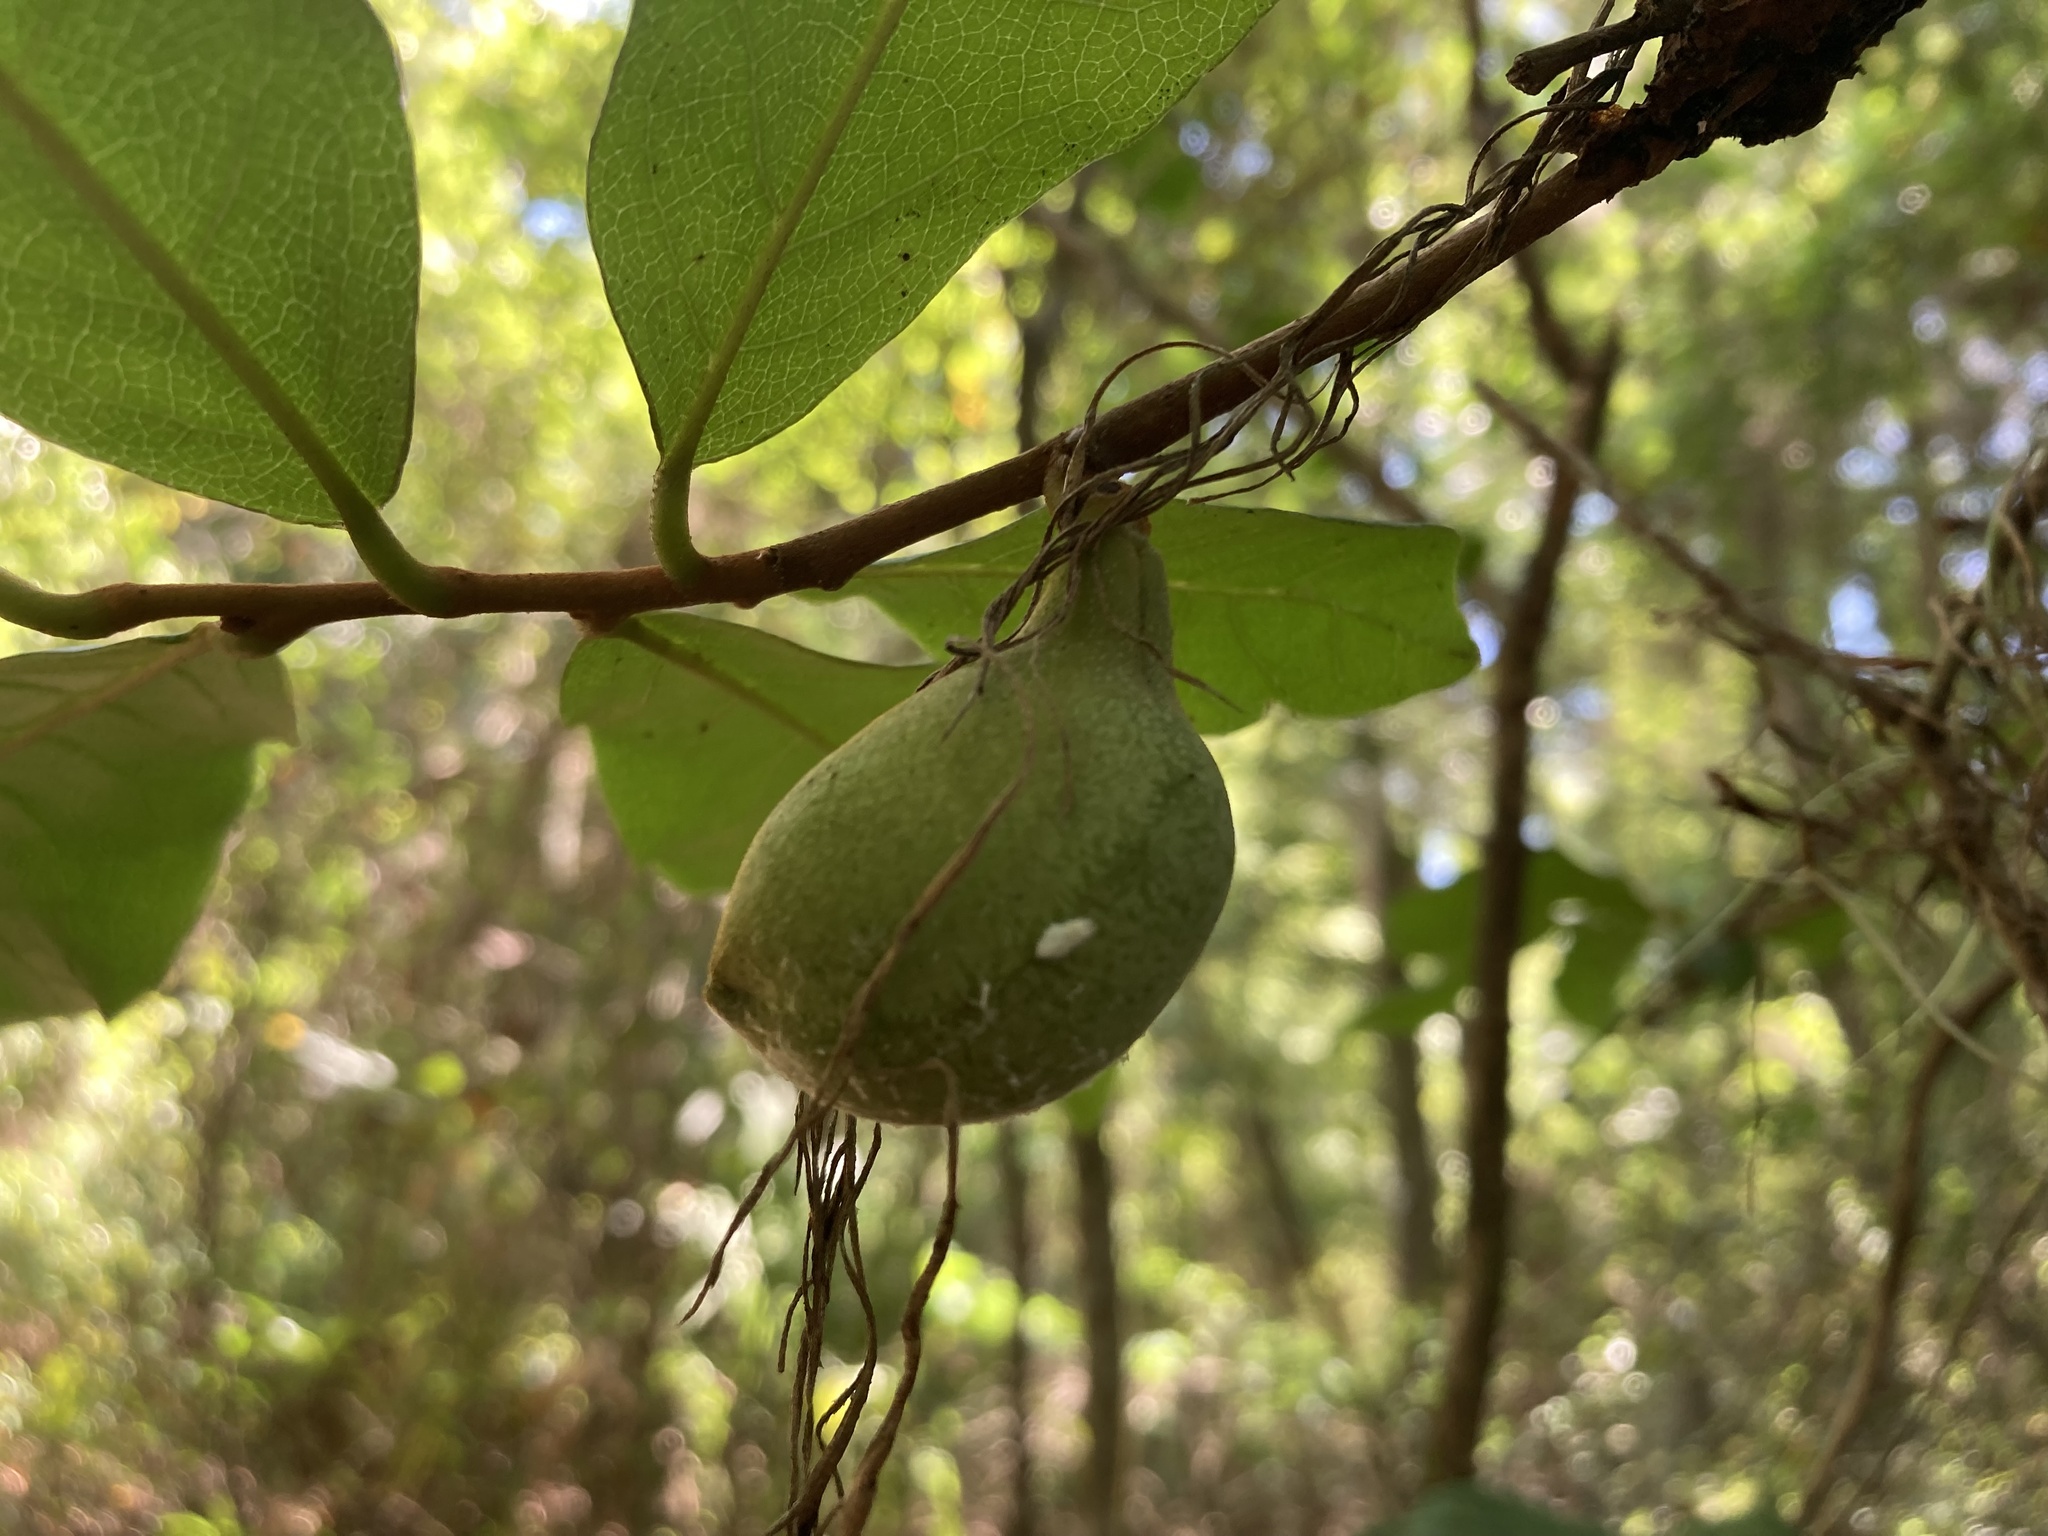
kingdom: Plantae
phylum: Tracheophyta
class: Magnoliopsida
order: Magnoliales
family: Annonaceae
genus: Asimina
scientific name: Asimina parviflora
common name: Dwarf pawpaw
